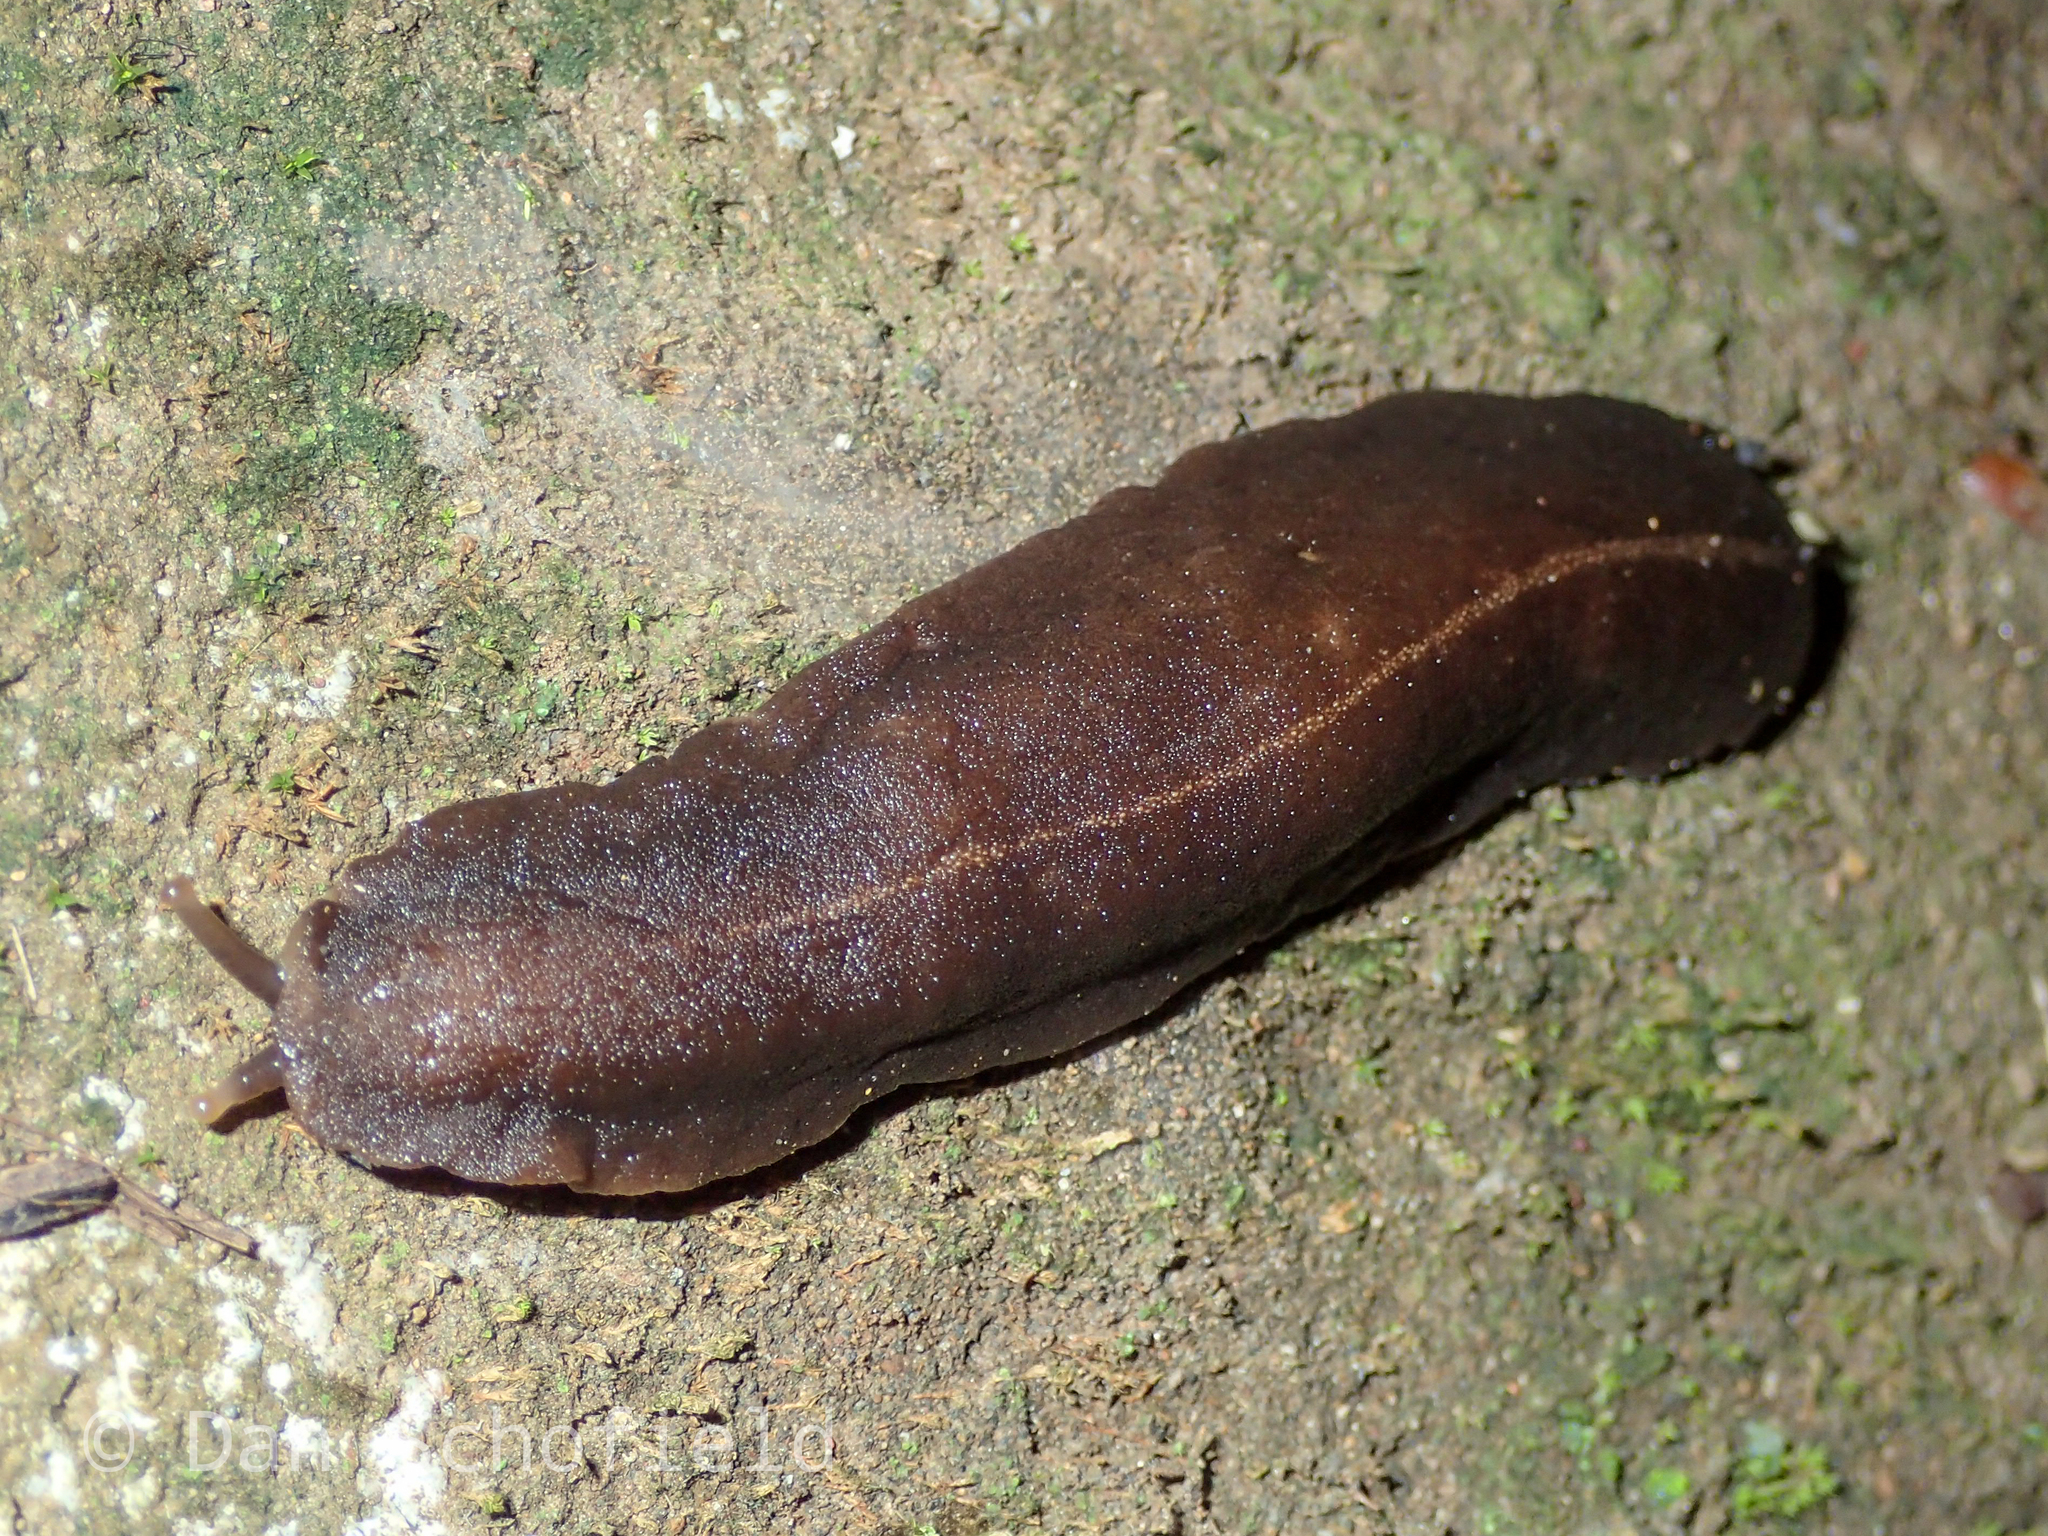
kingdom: Animalia
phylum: Mollusca
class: Gastropoda
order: Systellommatophora
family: Veronicellidae
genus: Laevicaulis
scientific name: Laevicaulis alte
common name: Tropical leatherleaf
